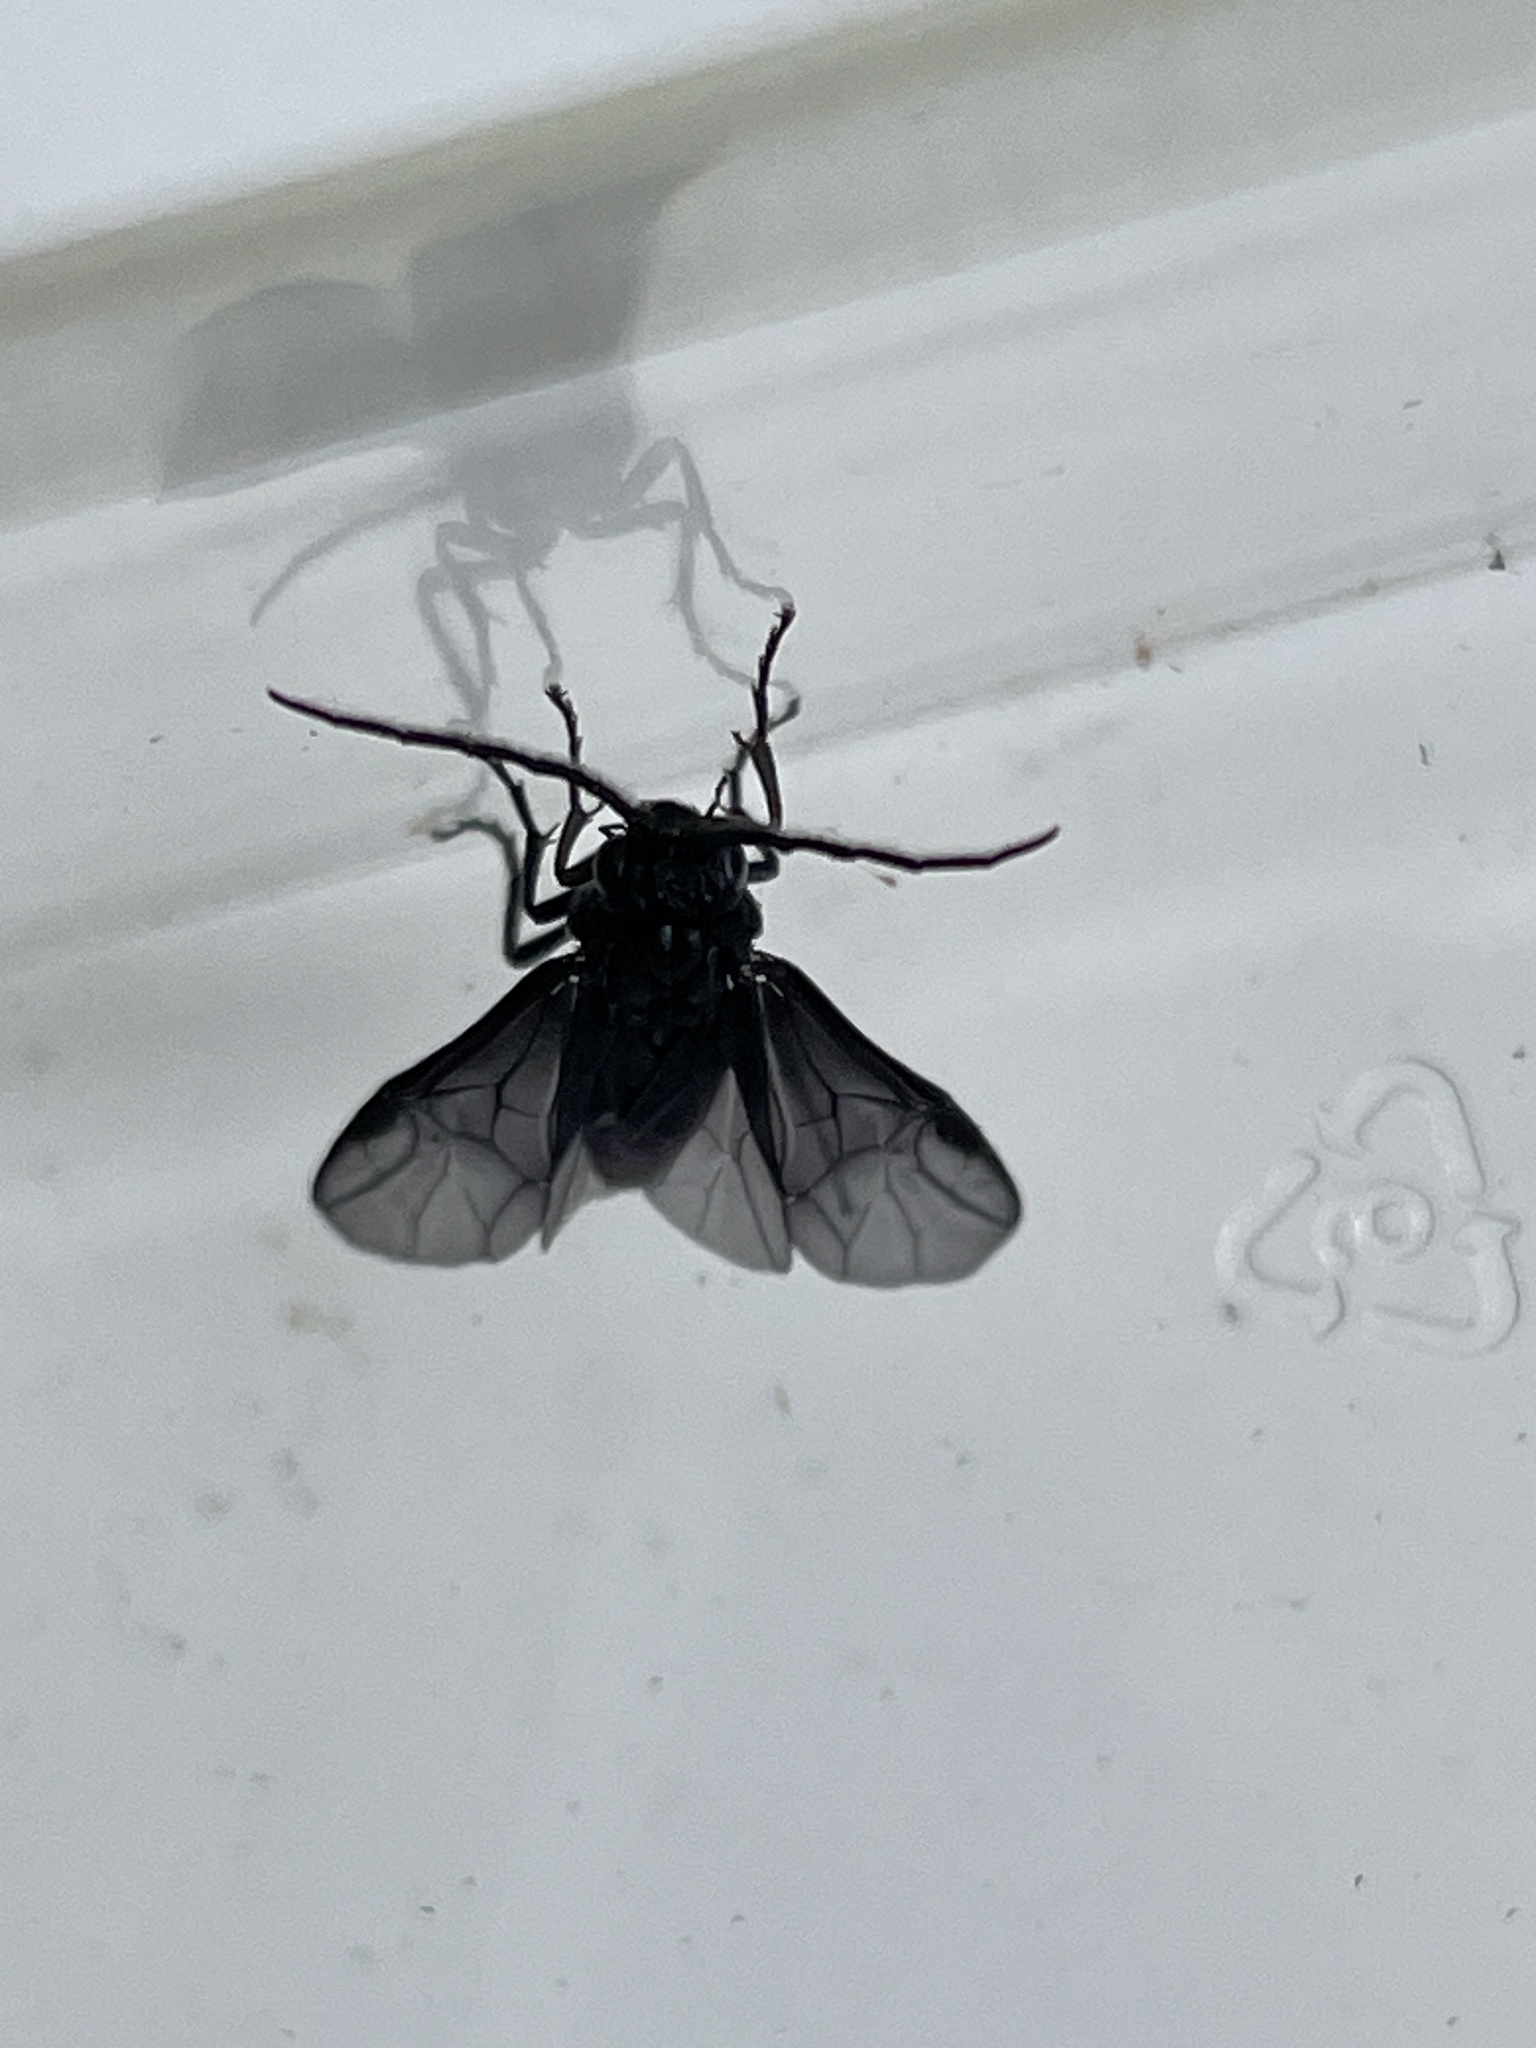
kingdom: Animalia
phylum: Arthropoda
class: Insecta
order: Hymenoptera
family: Tenthredinidae
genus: Phymatocera
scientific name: Phymatocera aterrima
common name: Solomon's-seal sawfly
